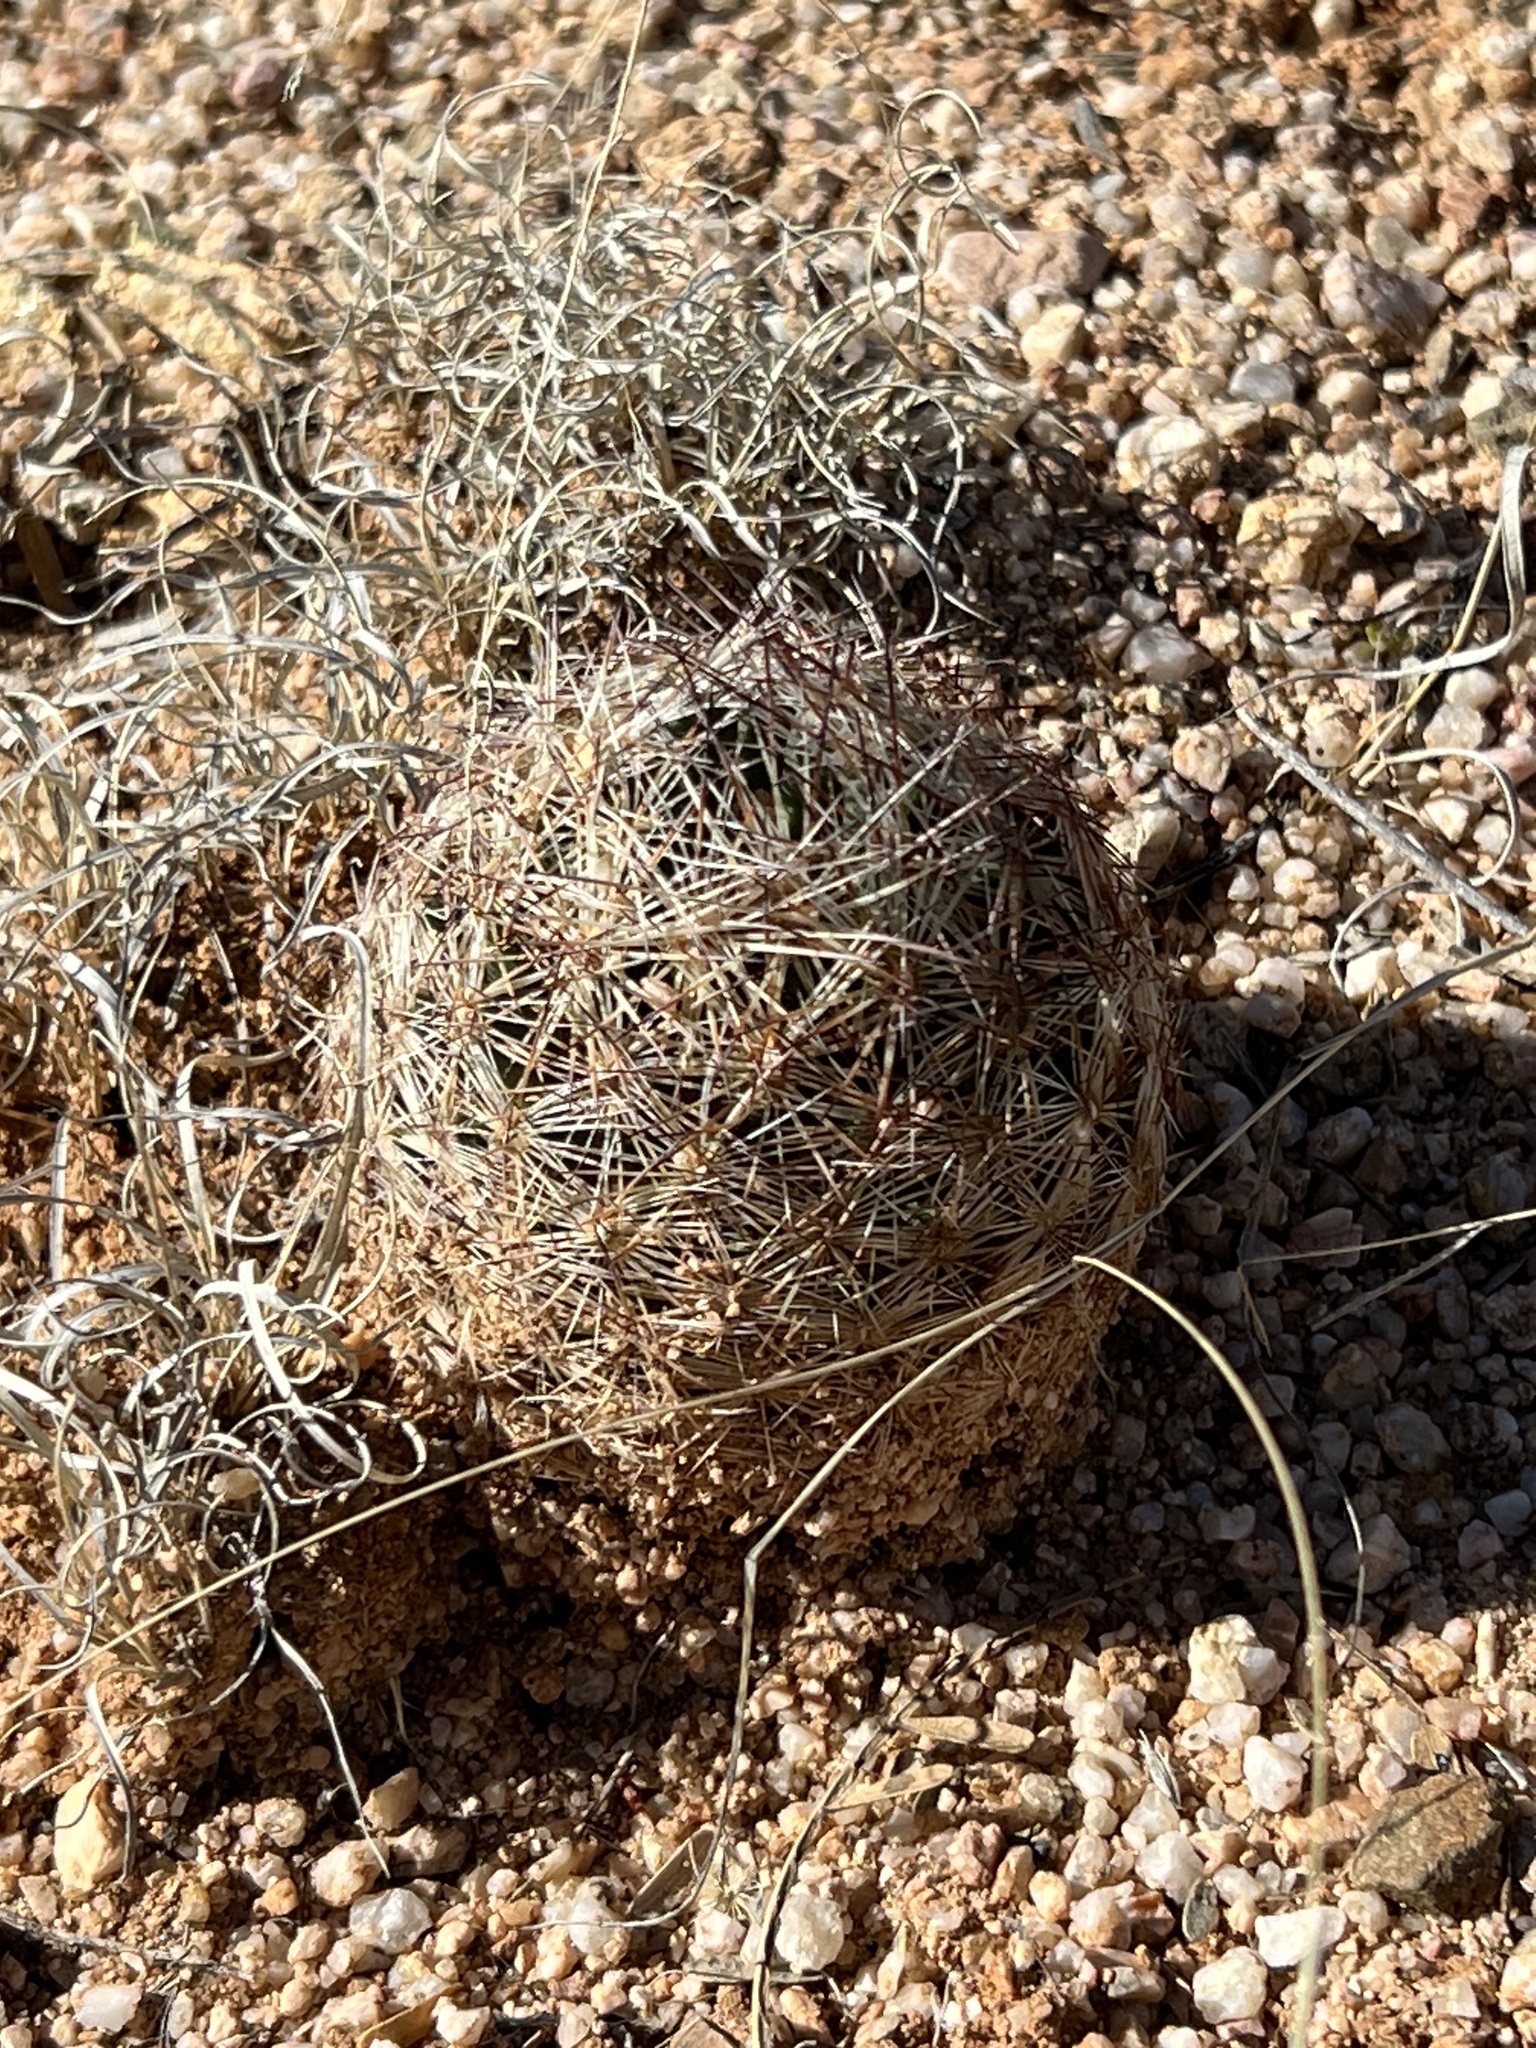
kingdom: Plantae
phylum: Tracheophyta
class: Magnoliopsida
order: Caryophyllales
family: Cactaceae
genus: Sclerocactus
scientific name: Sclerocactus intertextus
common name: White fish-hook cactus
